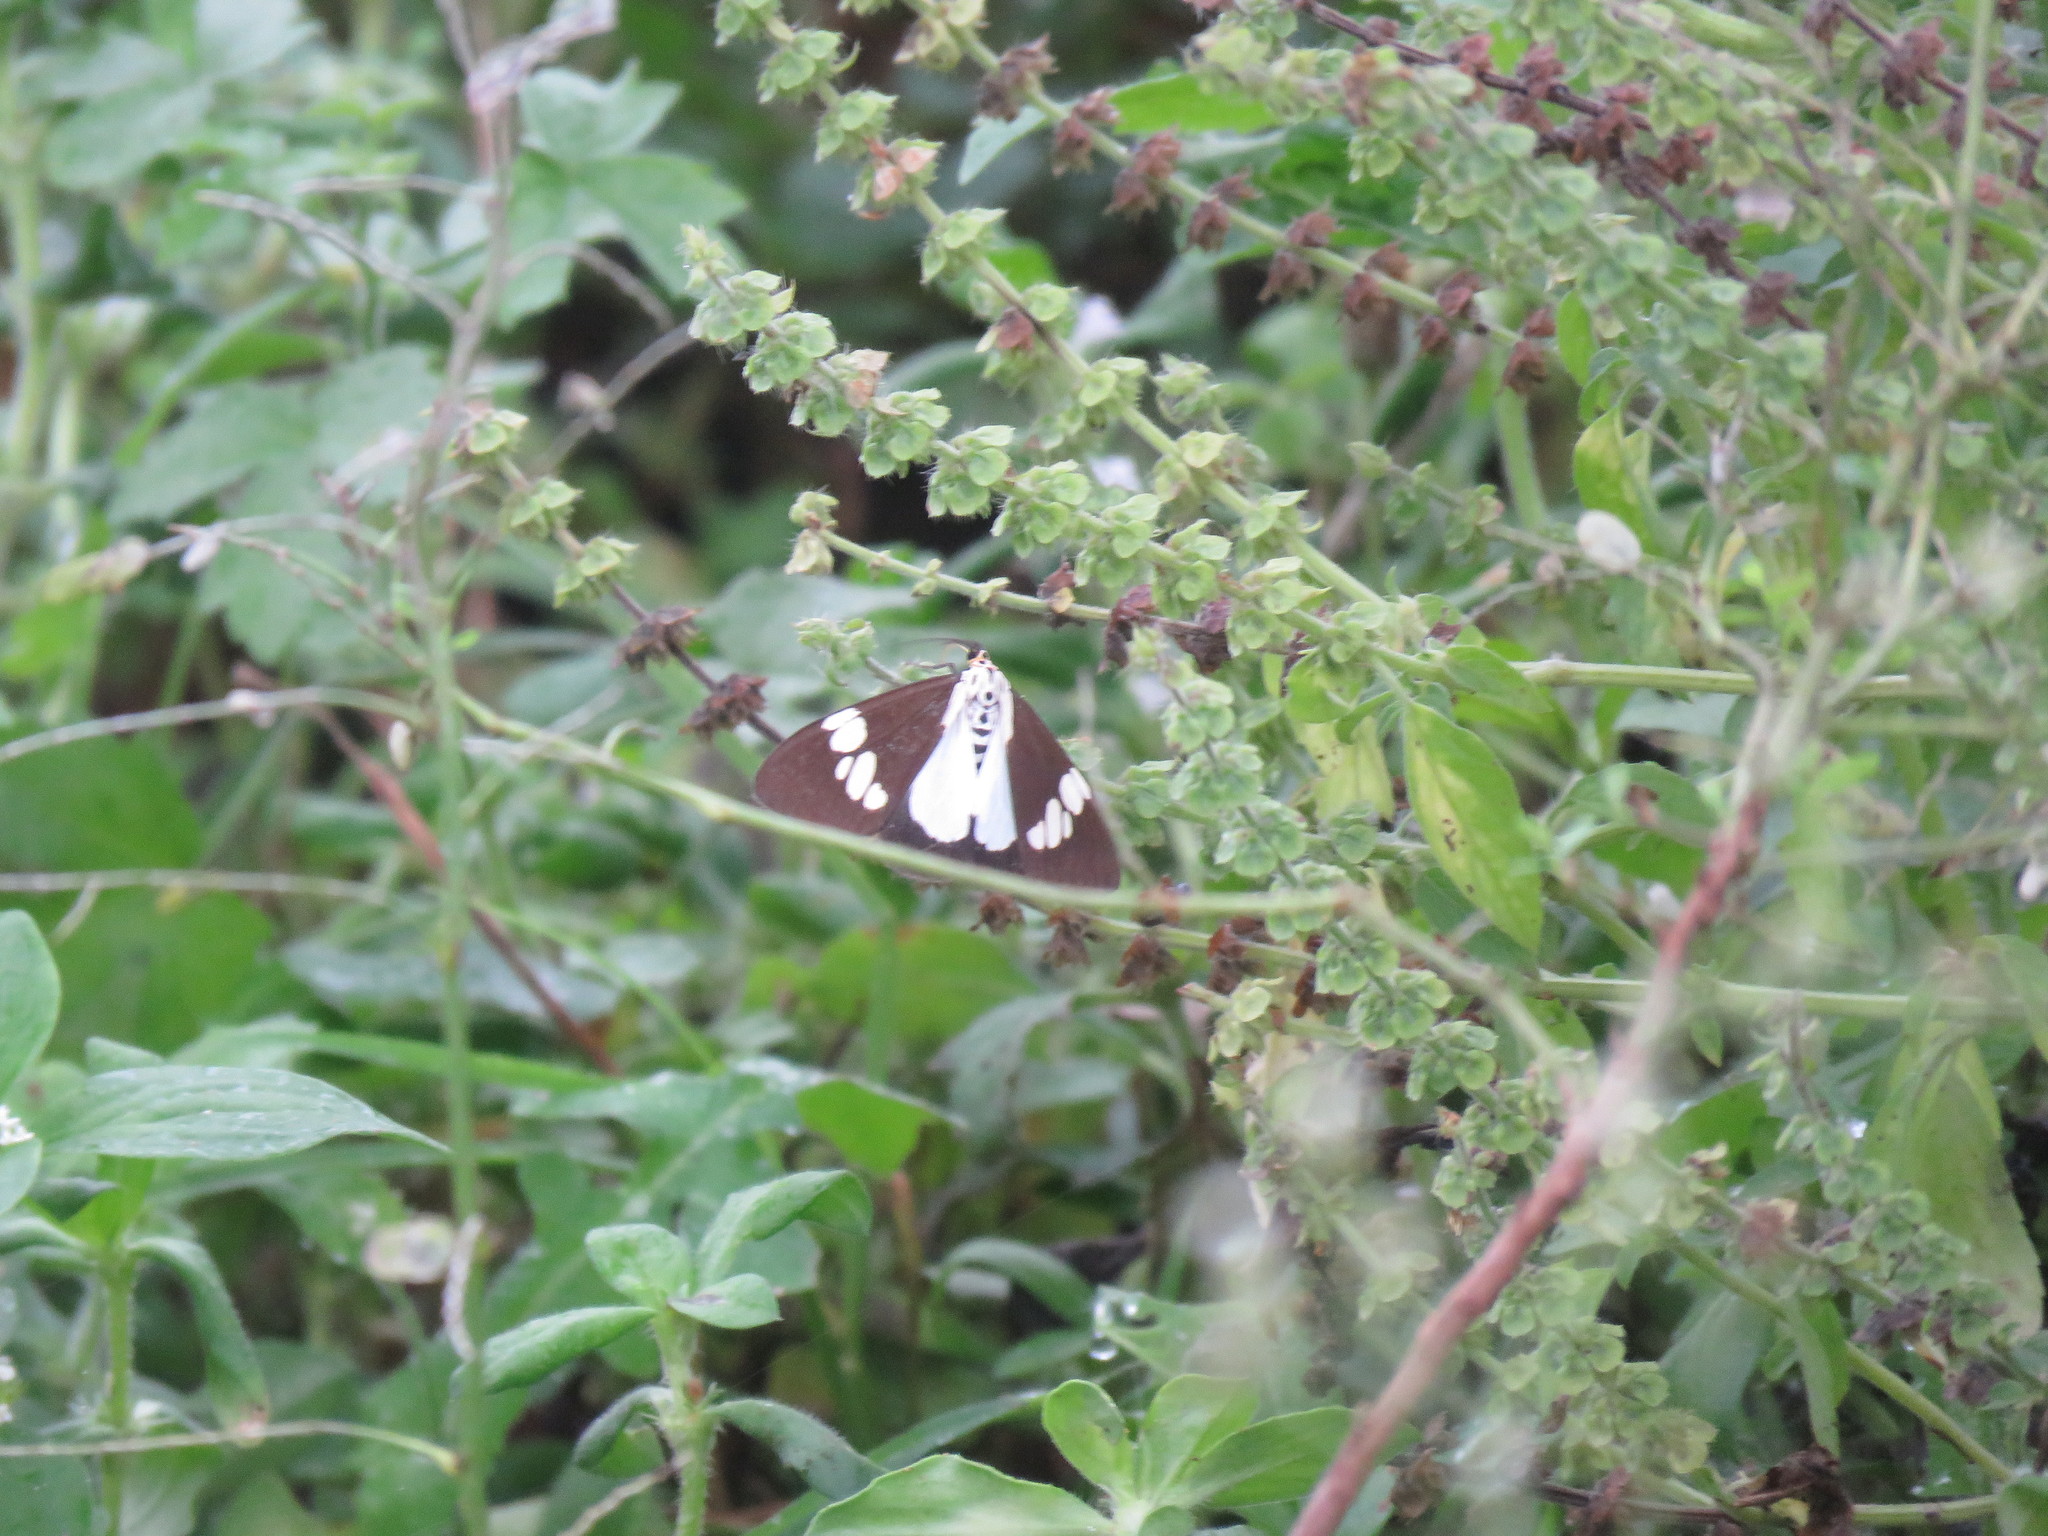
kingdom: Animalia
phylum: Arthropoda
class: Insecta
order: Lepidoptera
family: Erebidae
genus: Nyctemera
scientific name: Nyctemera lacticinia
